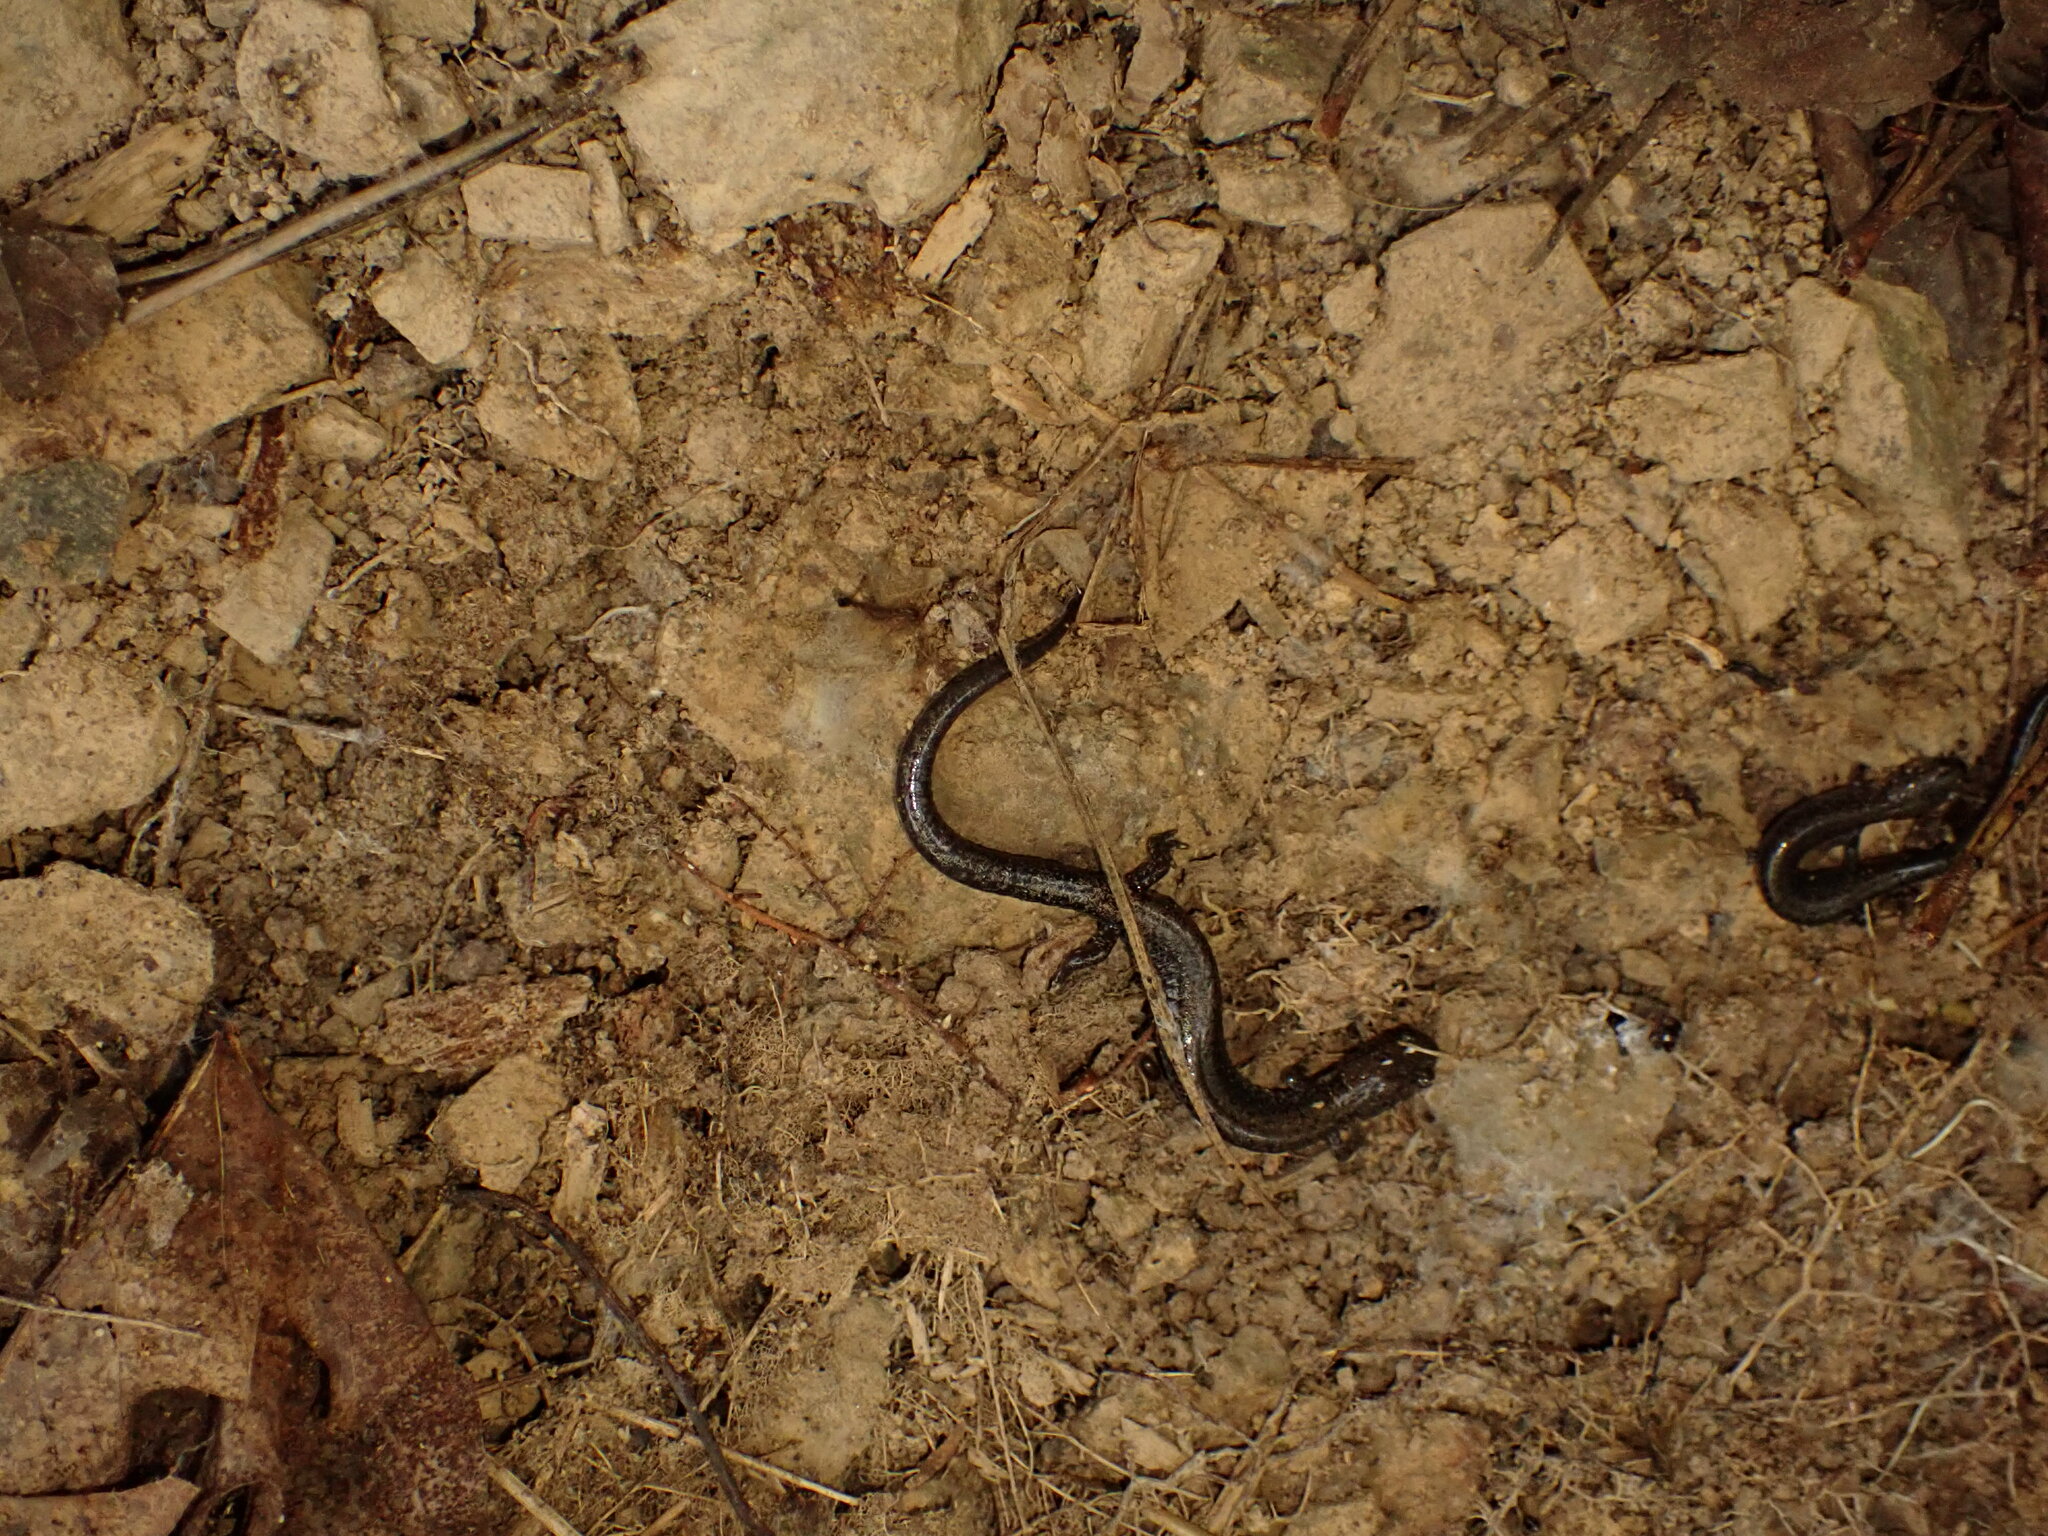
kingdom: Animalia
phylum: Chordata
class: Amphibia
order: Caudata
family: Plethodontidae
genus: Plethodon
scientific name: Plethodon
